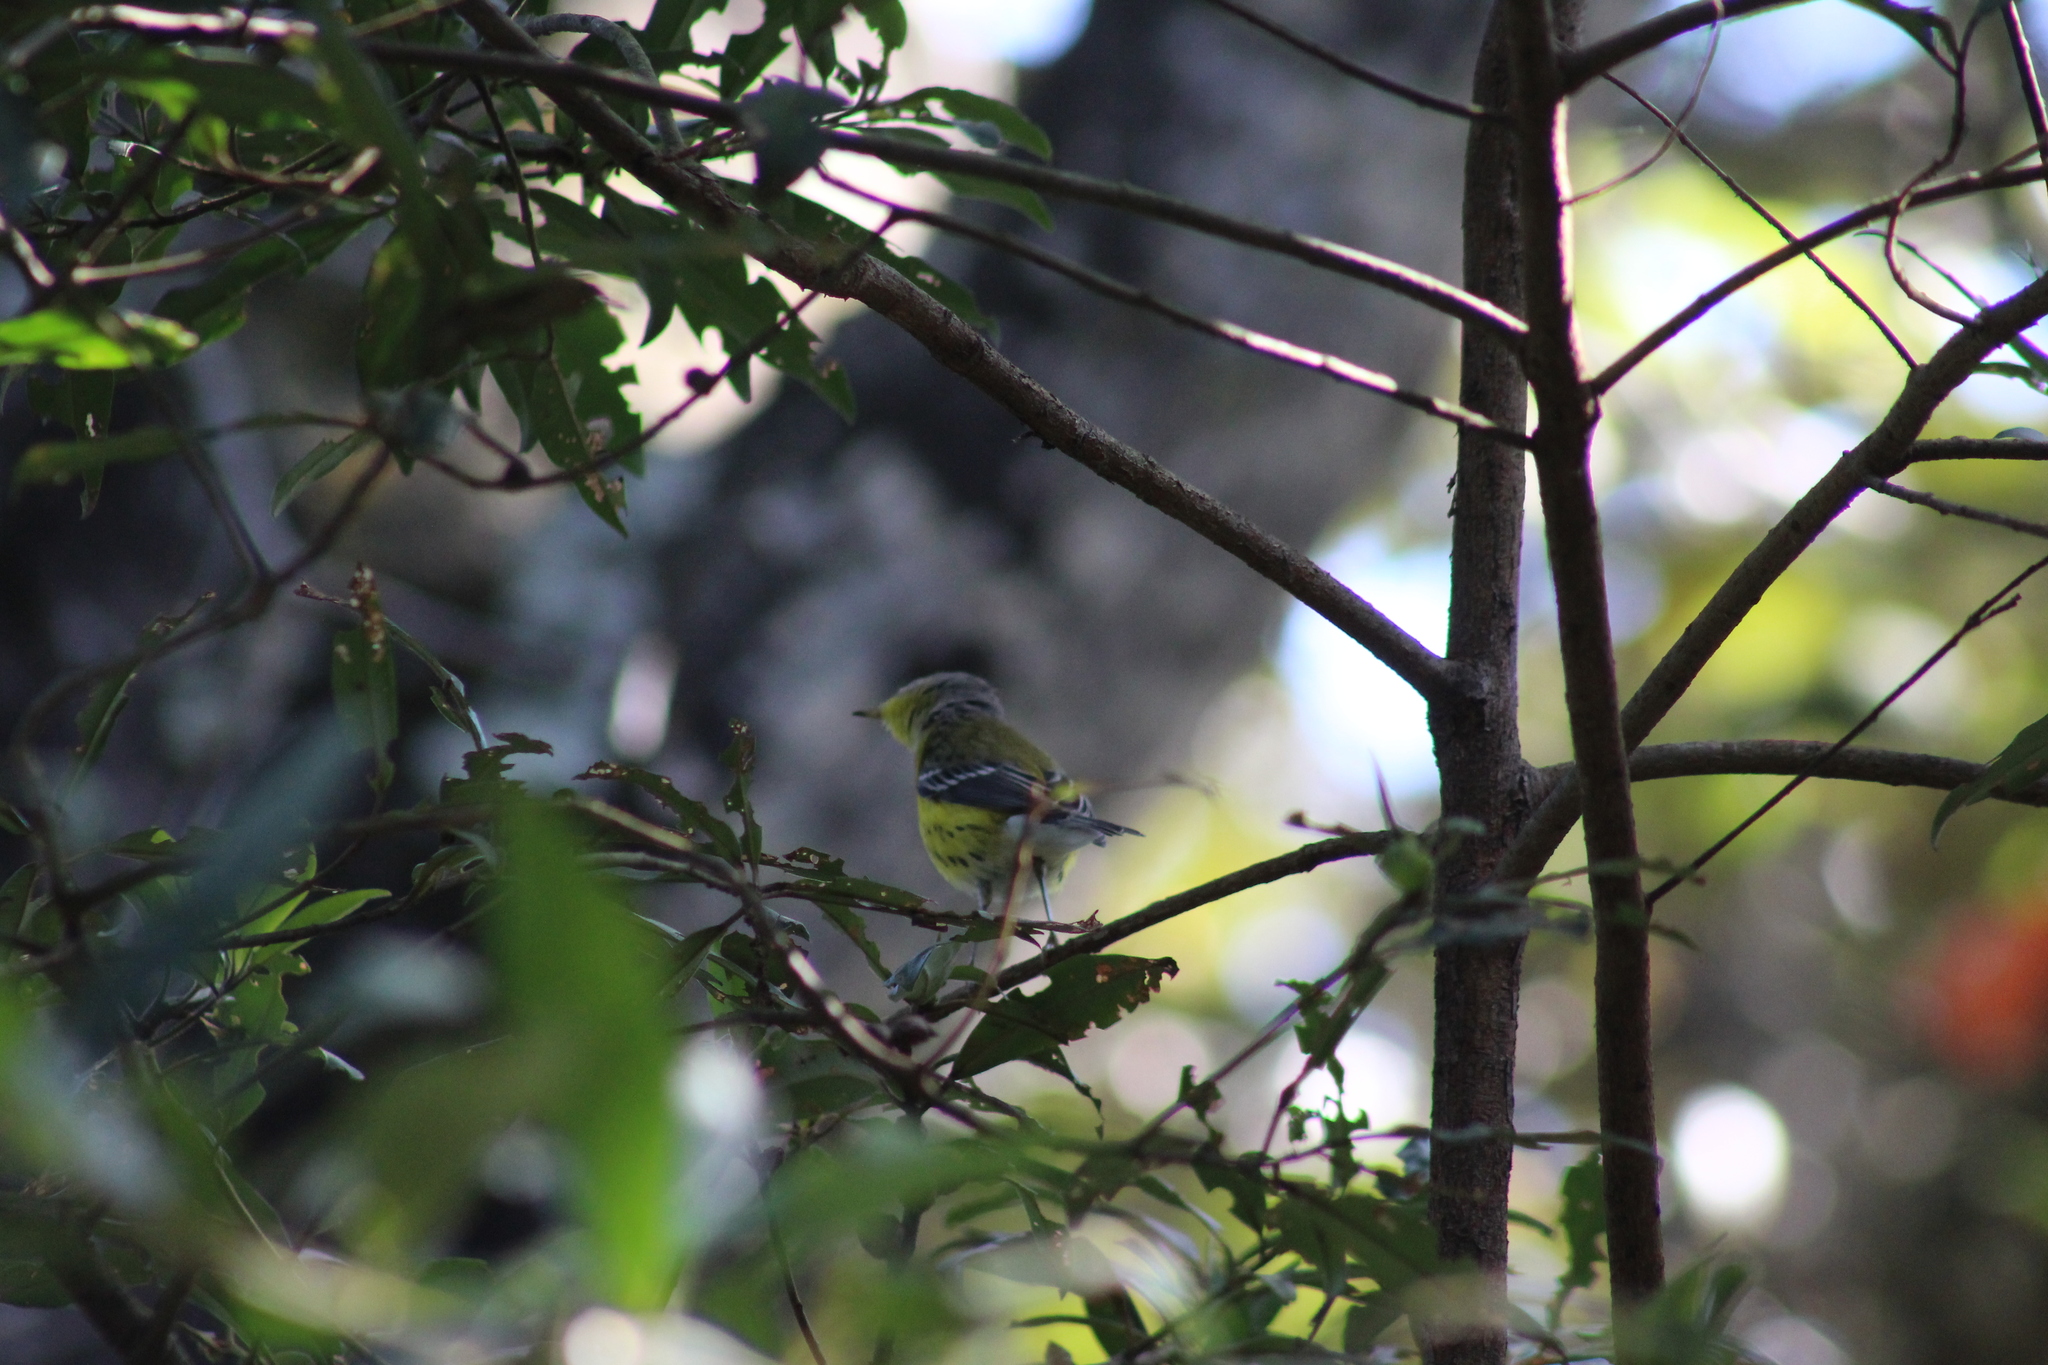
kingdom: Animalia
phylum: Chordata
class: Aves
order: Passeriformes
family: Parulidae
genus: Setophaga
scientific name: Setophaga magnolia
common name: Magnolia warbler
